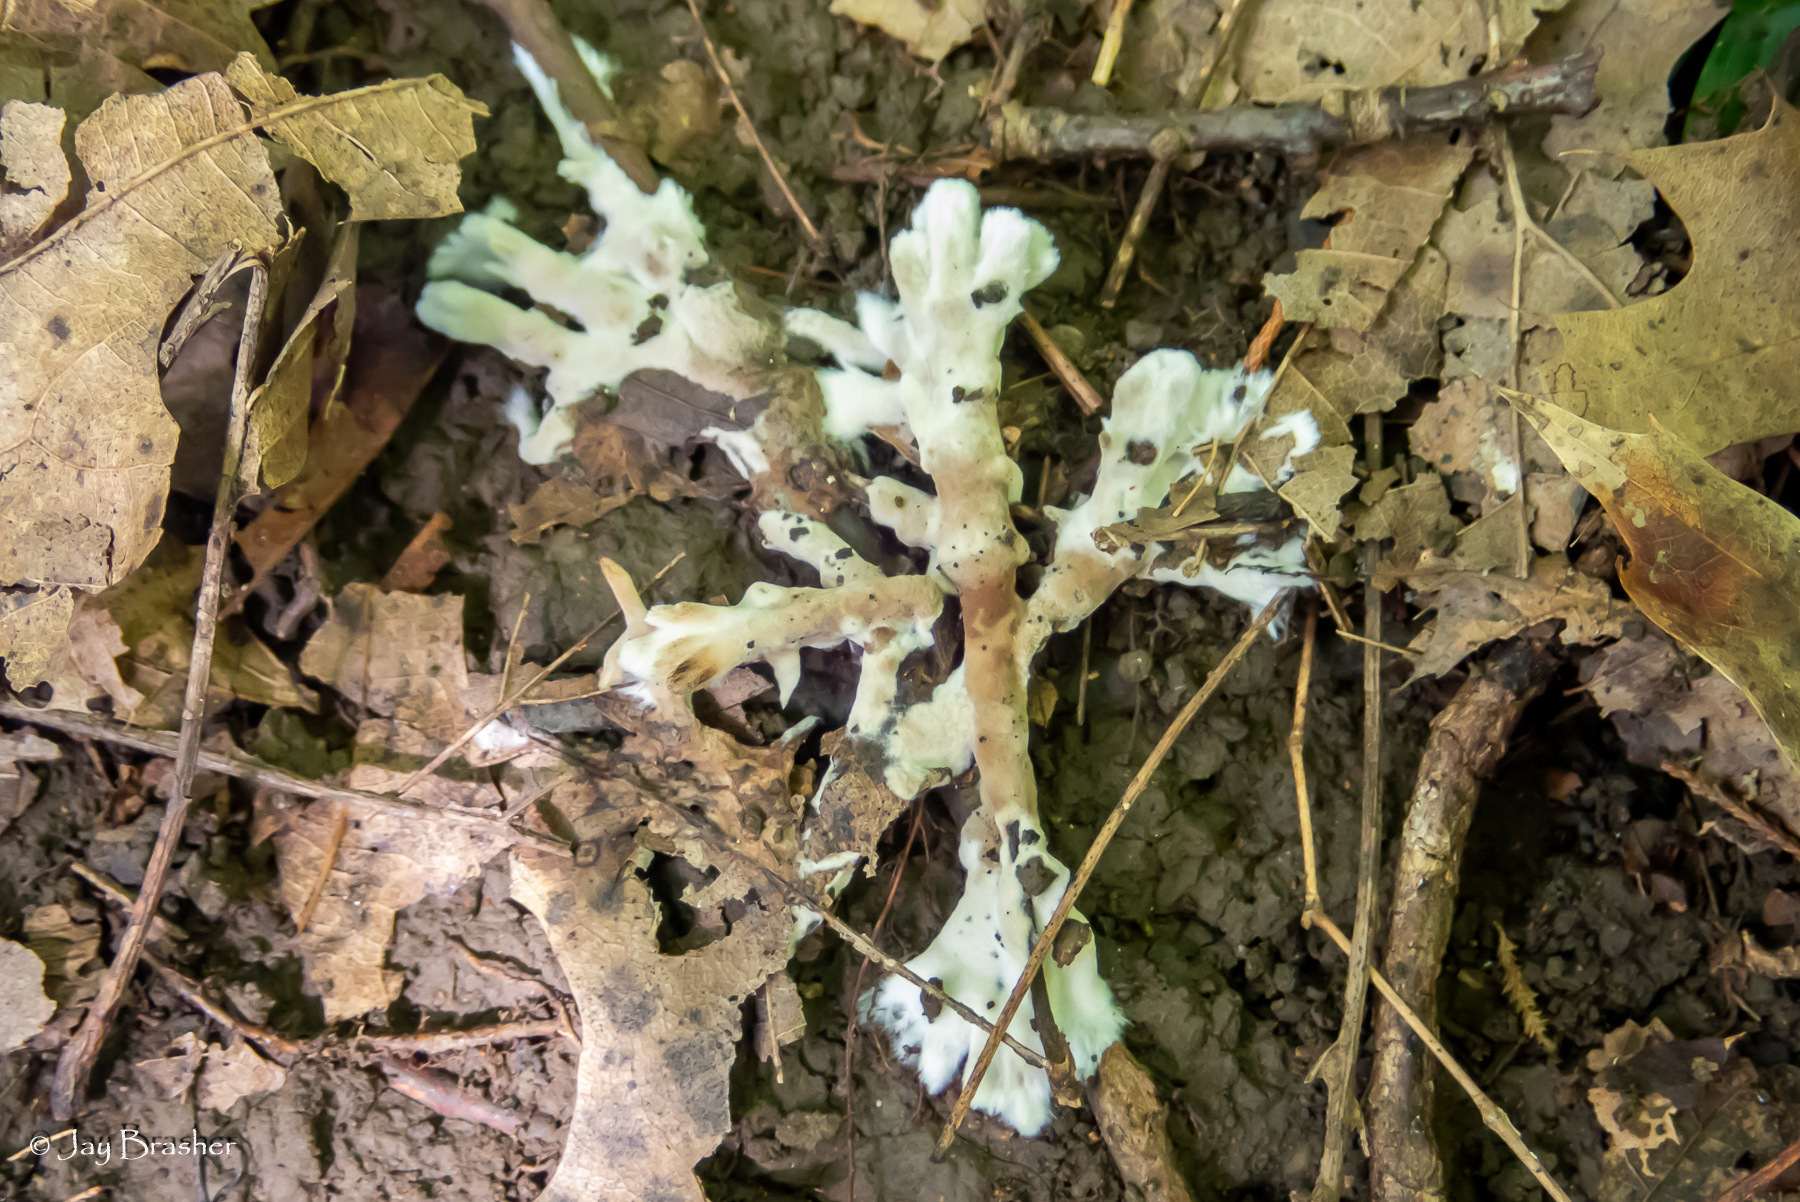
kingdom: Fungi
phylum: Basidiomycota
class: Agaricomycetes
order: Sebacinales
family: Sebacinaceae
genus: Sebacina
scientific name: Sebacina incrustans
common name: Enveloping crust
